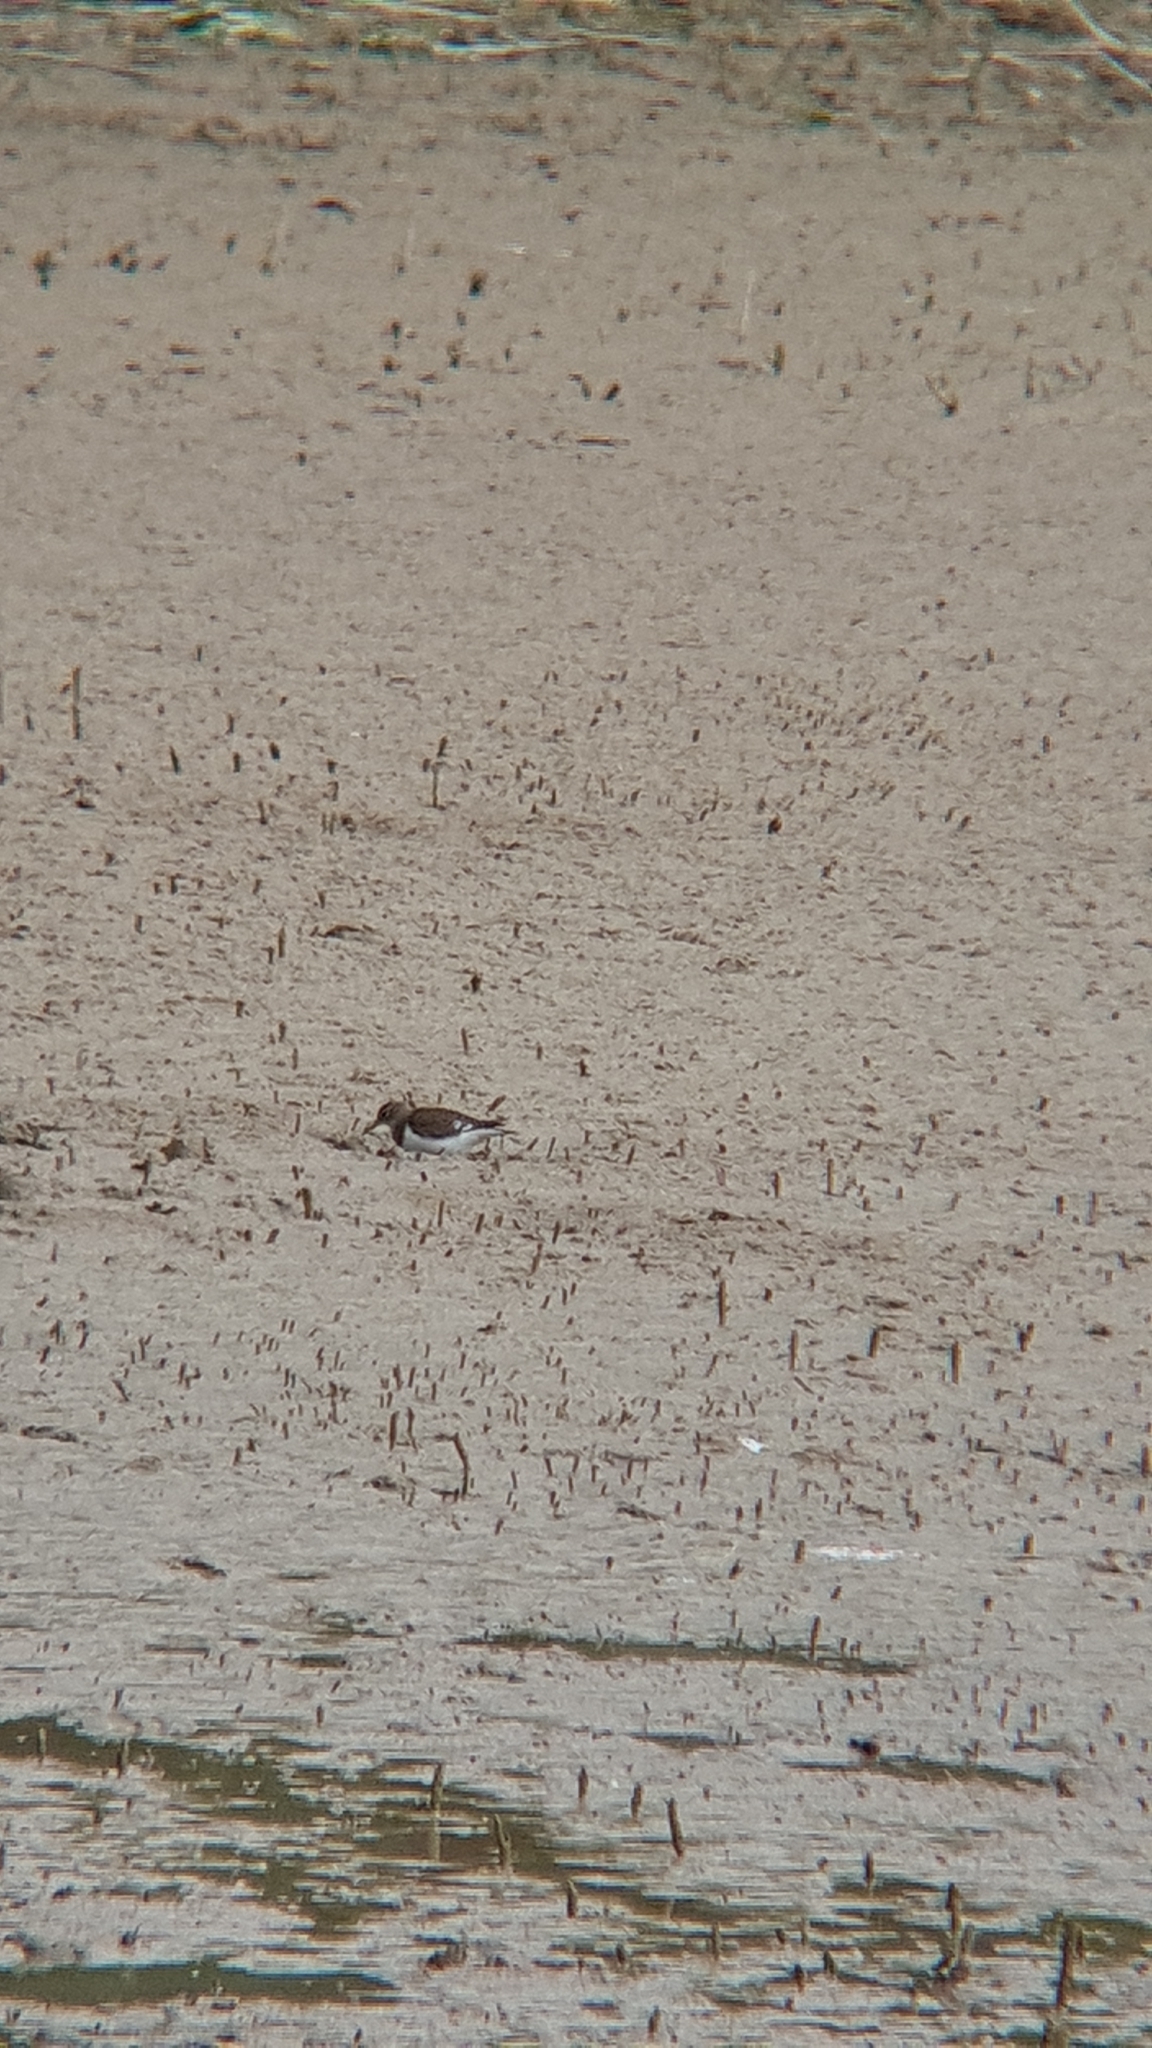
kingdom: Animalia
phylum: Chordata
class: Aves
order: Charadriiformes
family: Scolopacidae
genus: Actitis
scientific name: Actitis hypoleucos
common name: Common sandpiper
